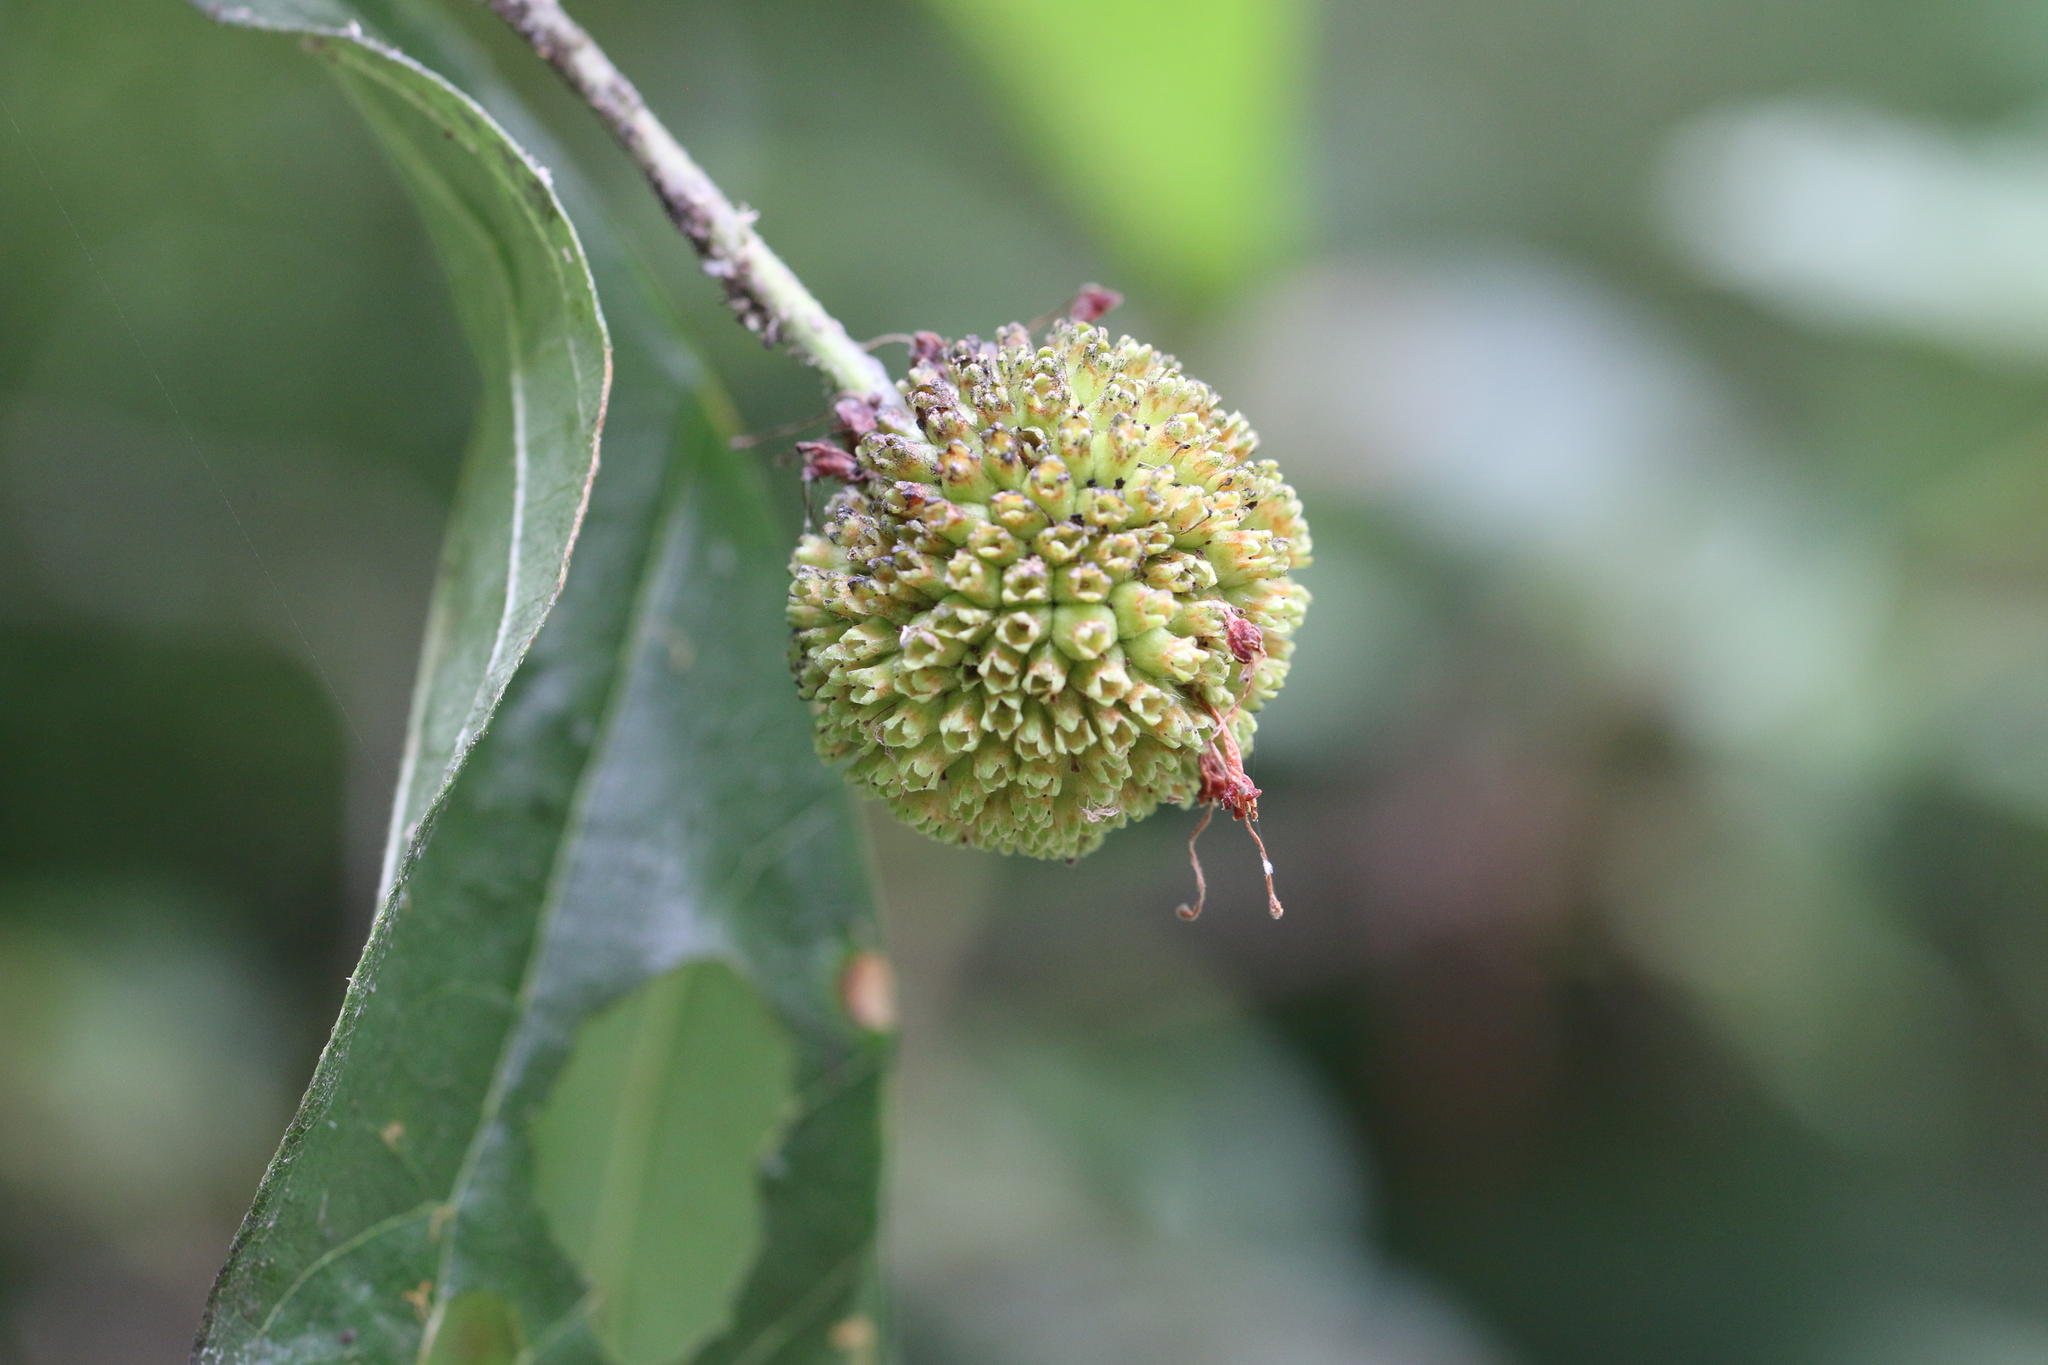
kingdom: Plantae
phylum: Tracheophyta
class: Magnoliopsida
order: Gentianales
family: Rubiaceae
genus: Cephalanthus
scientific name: Cephalanthus occidentalis
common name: Button-willow
